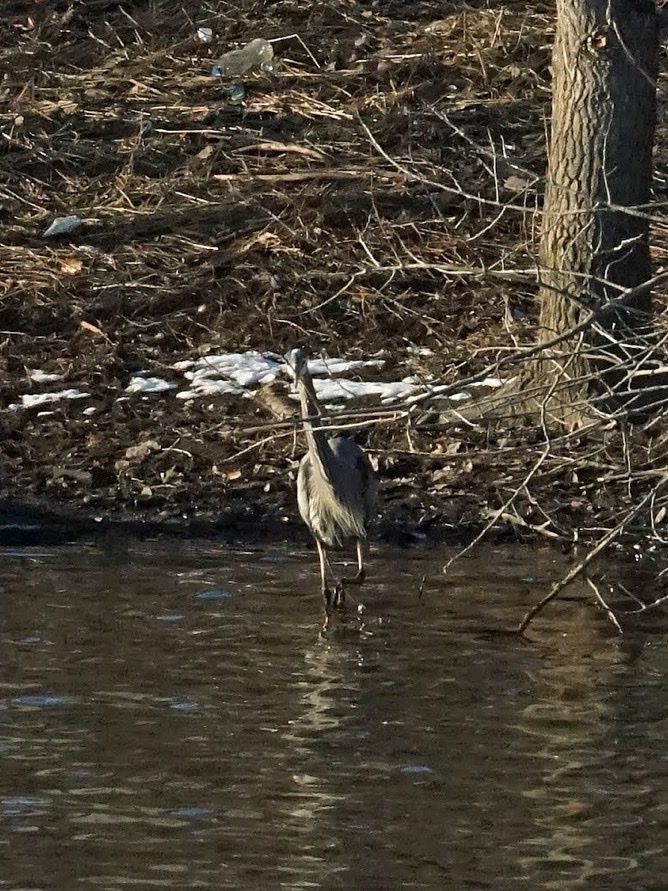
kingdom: Animalia
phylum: Chordata
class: Aves
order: Pelecaniformes
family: Ardeidae
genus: Ardea
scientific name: Ardea herodias
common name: Great blue heron
